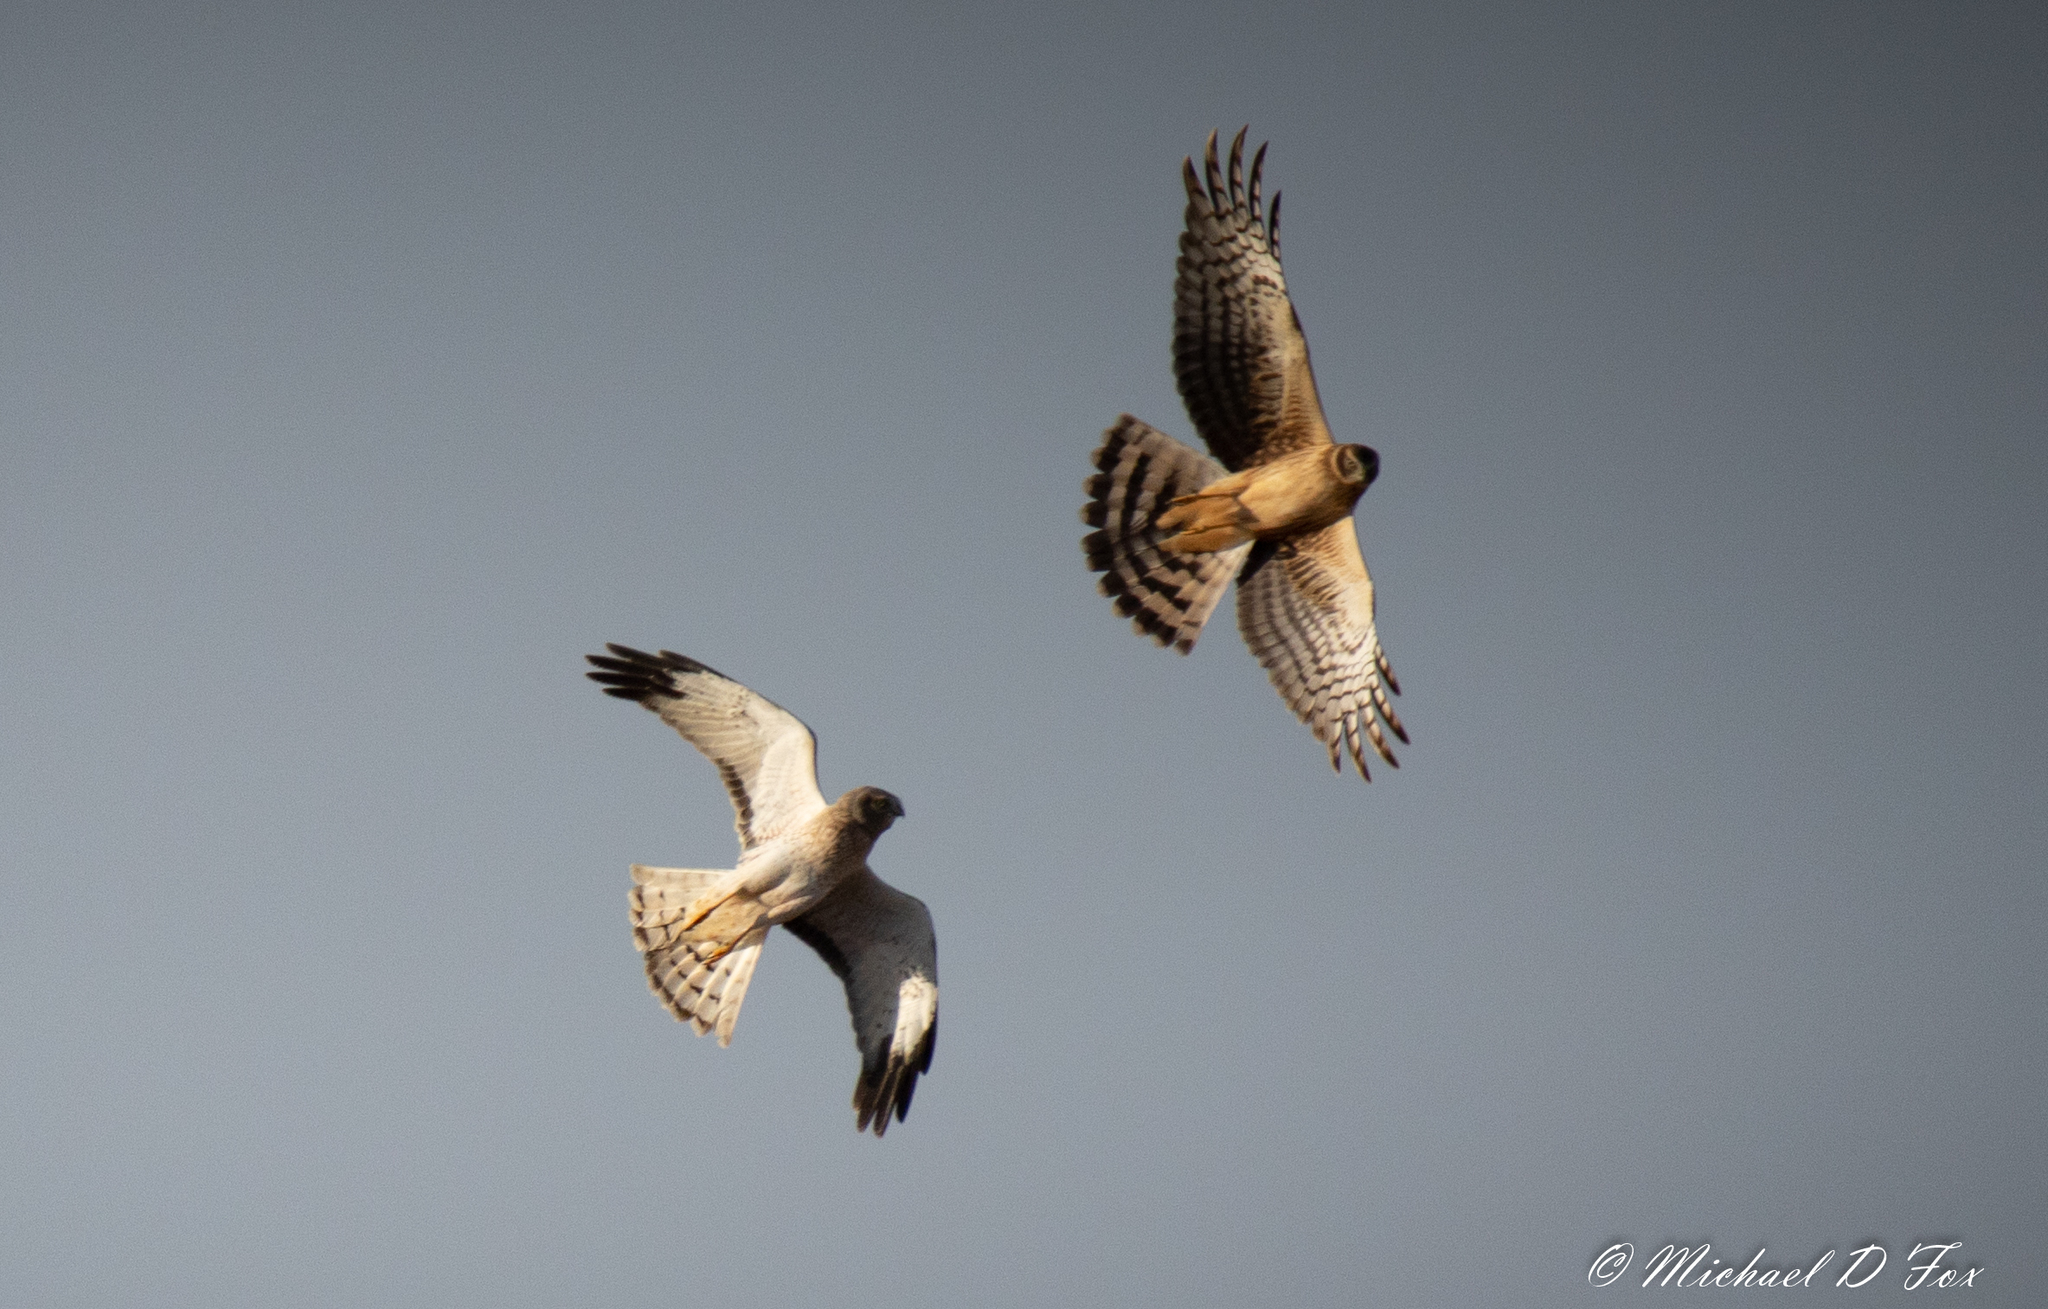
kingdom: Animalia
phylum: Chordata
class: Aves
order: Accipitriformes
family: Accipitridae
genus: Circus
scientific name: Circus cyaneus
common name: Hen harrier
